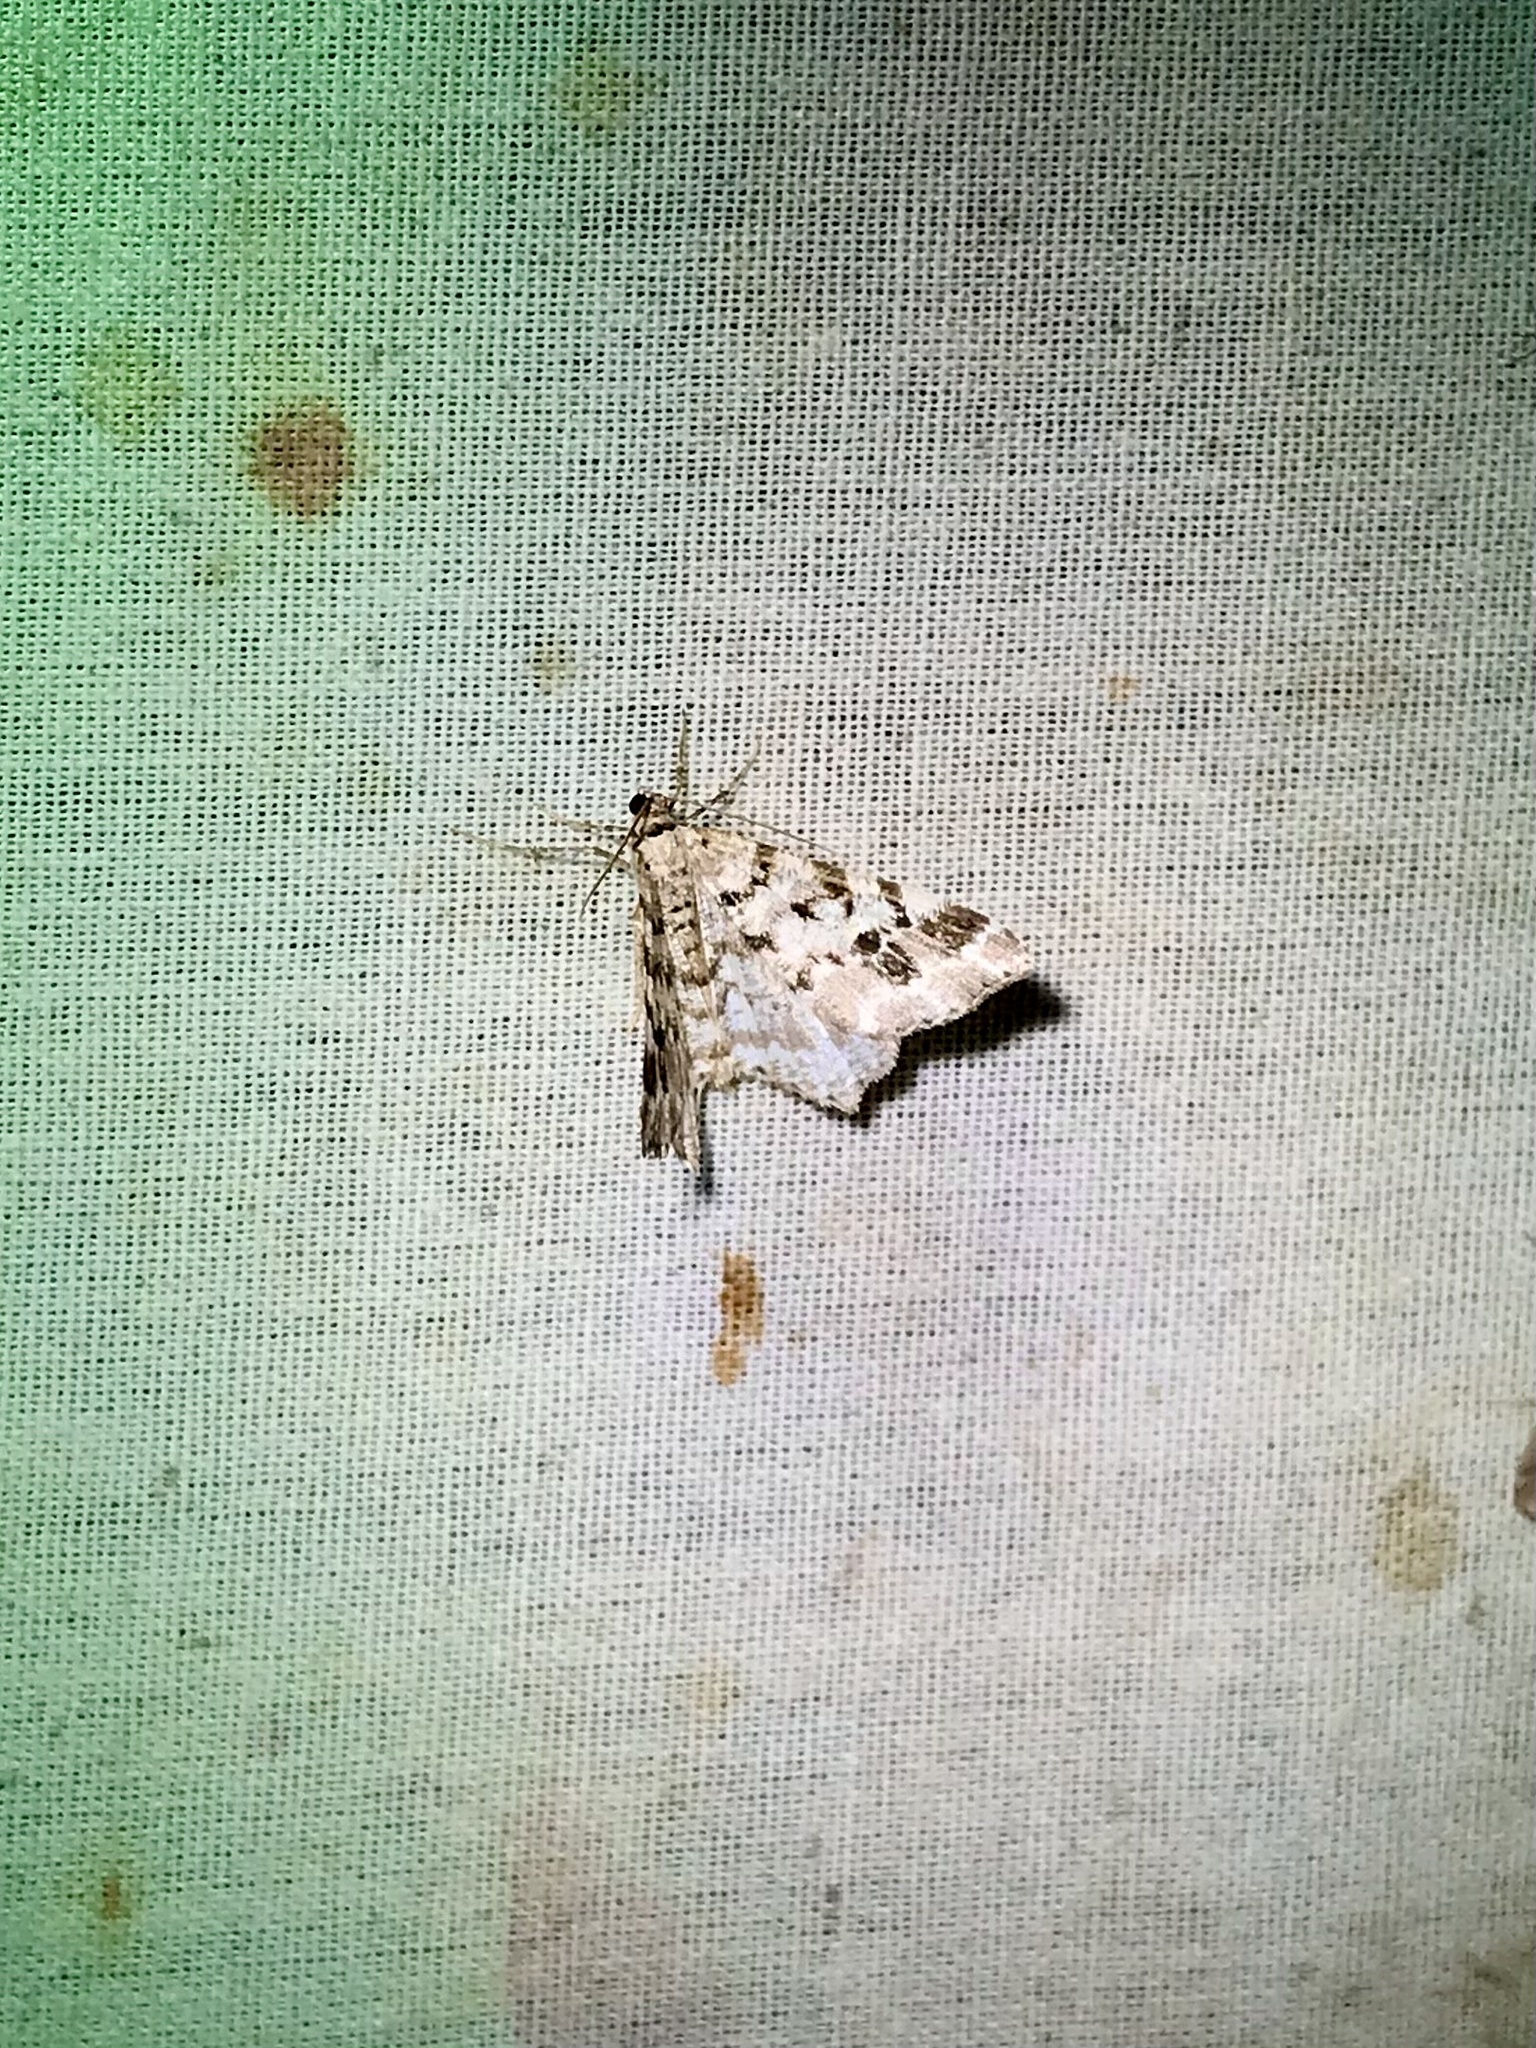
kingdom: Animalia
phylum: Arthropoda
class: Insecta
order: Lepidoptera
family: Geometridae
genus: Macaria
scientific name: Macaria oweni
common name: Owen's angle
